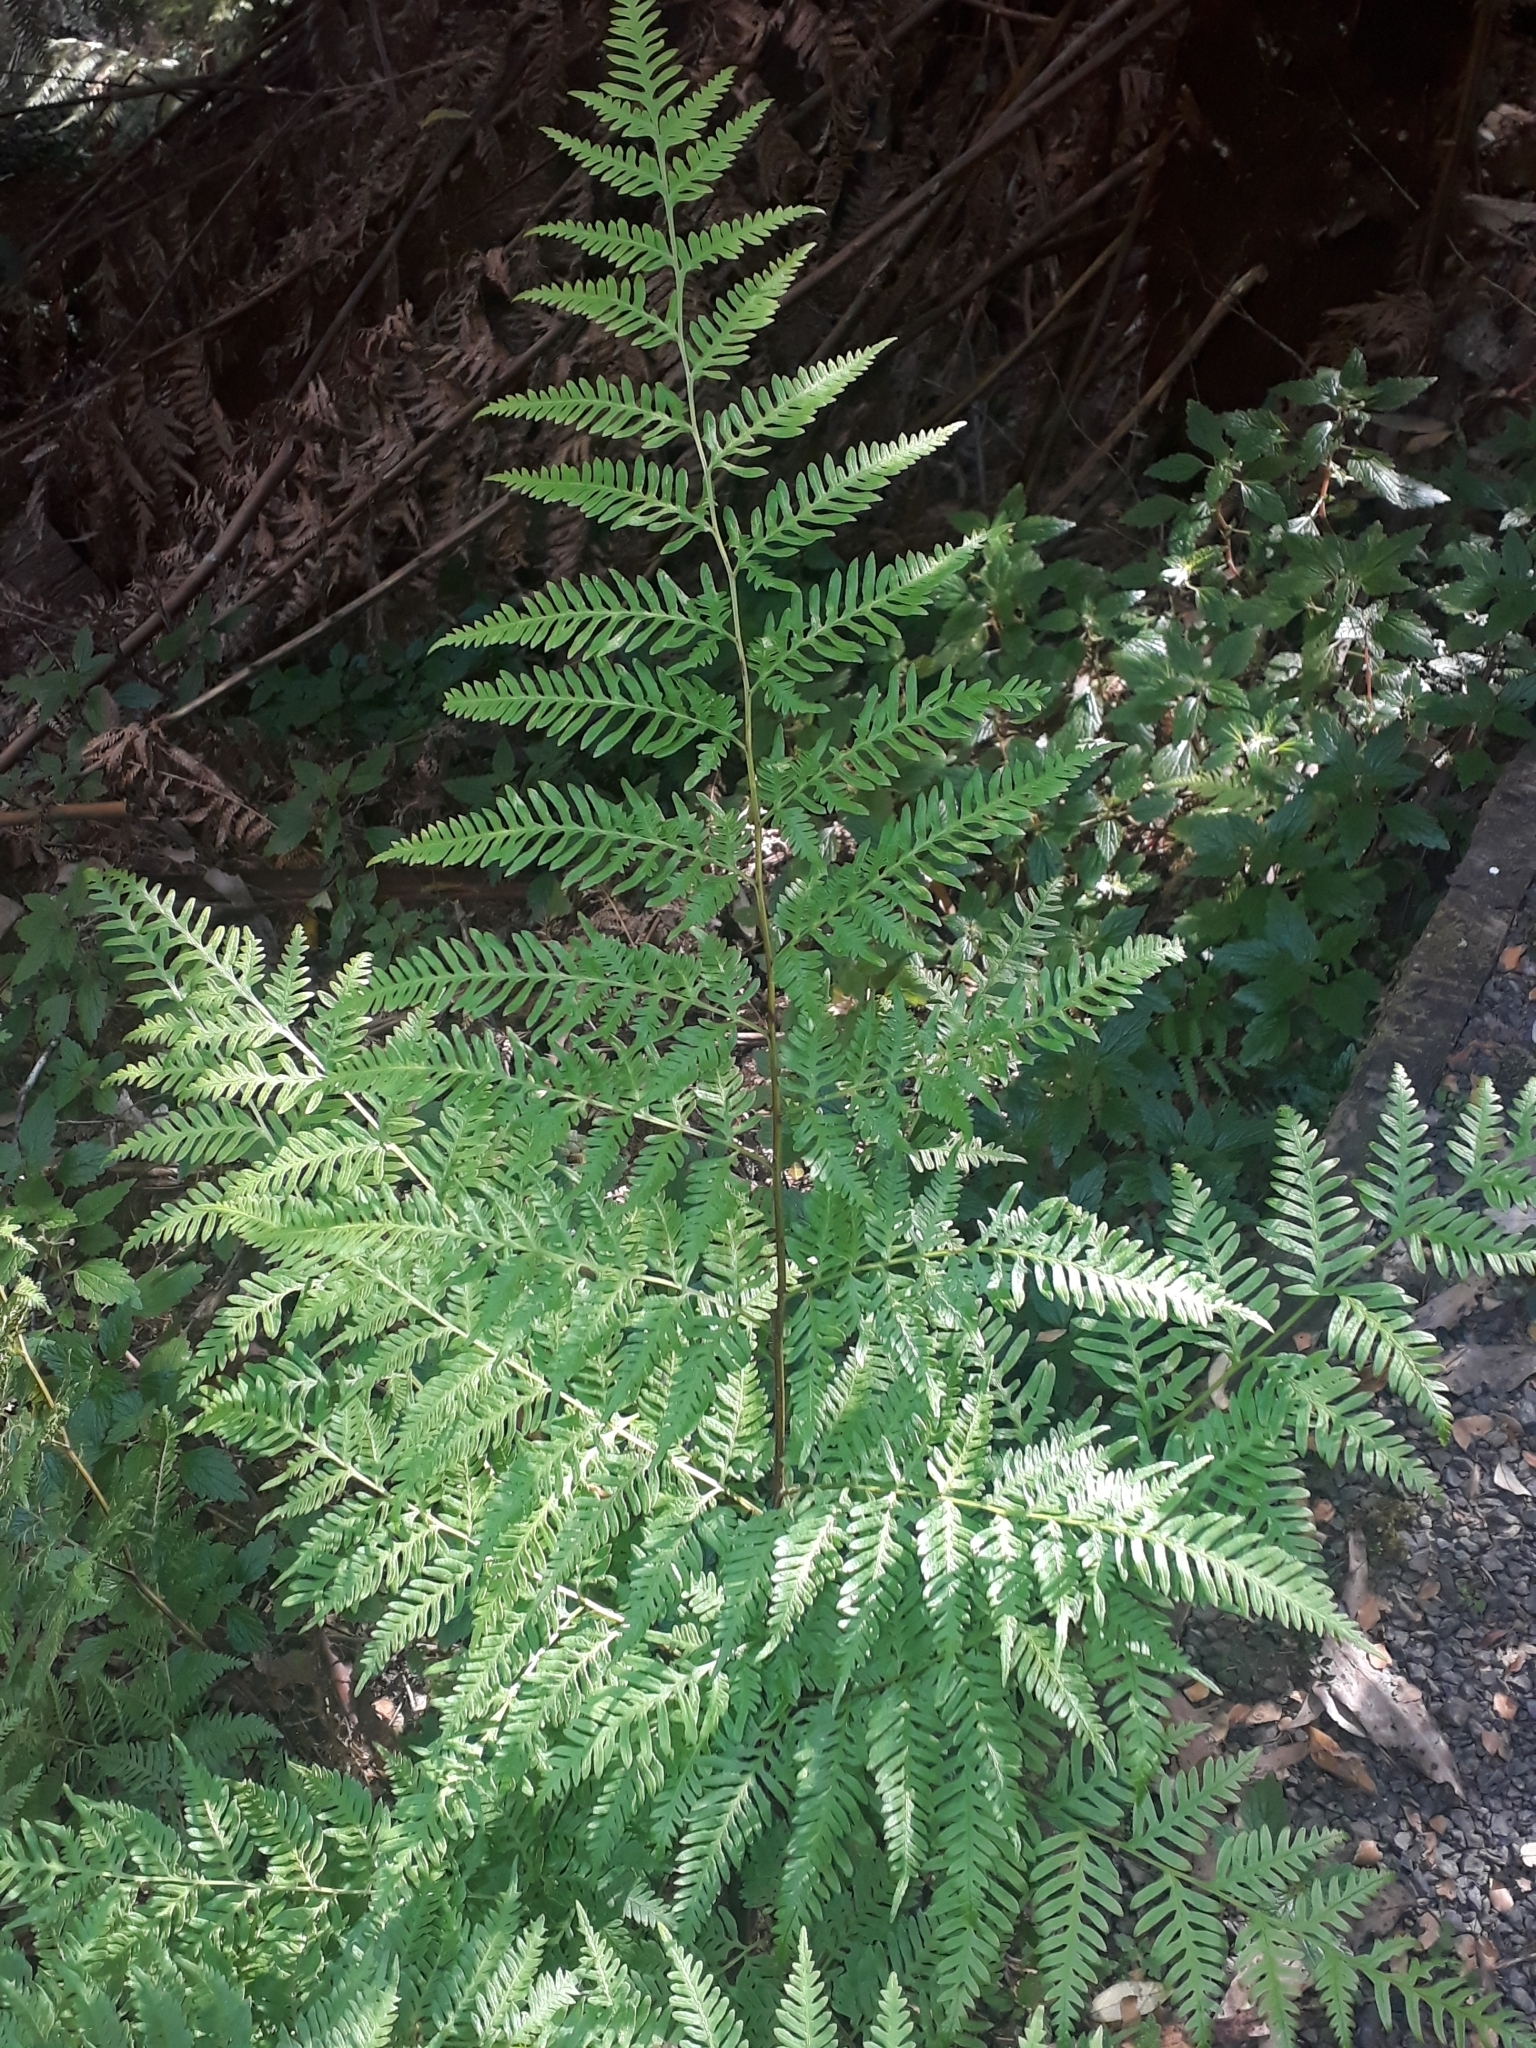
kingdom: Plantae
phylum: Tracheophyta
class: Polypodiopsida
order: Polypodiales
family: Pteridaceae
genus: Pteris
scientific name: Pteris tremula
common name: Australian brake
